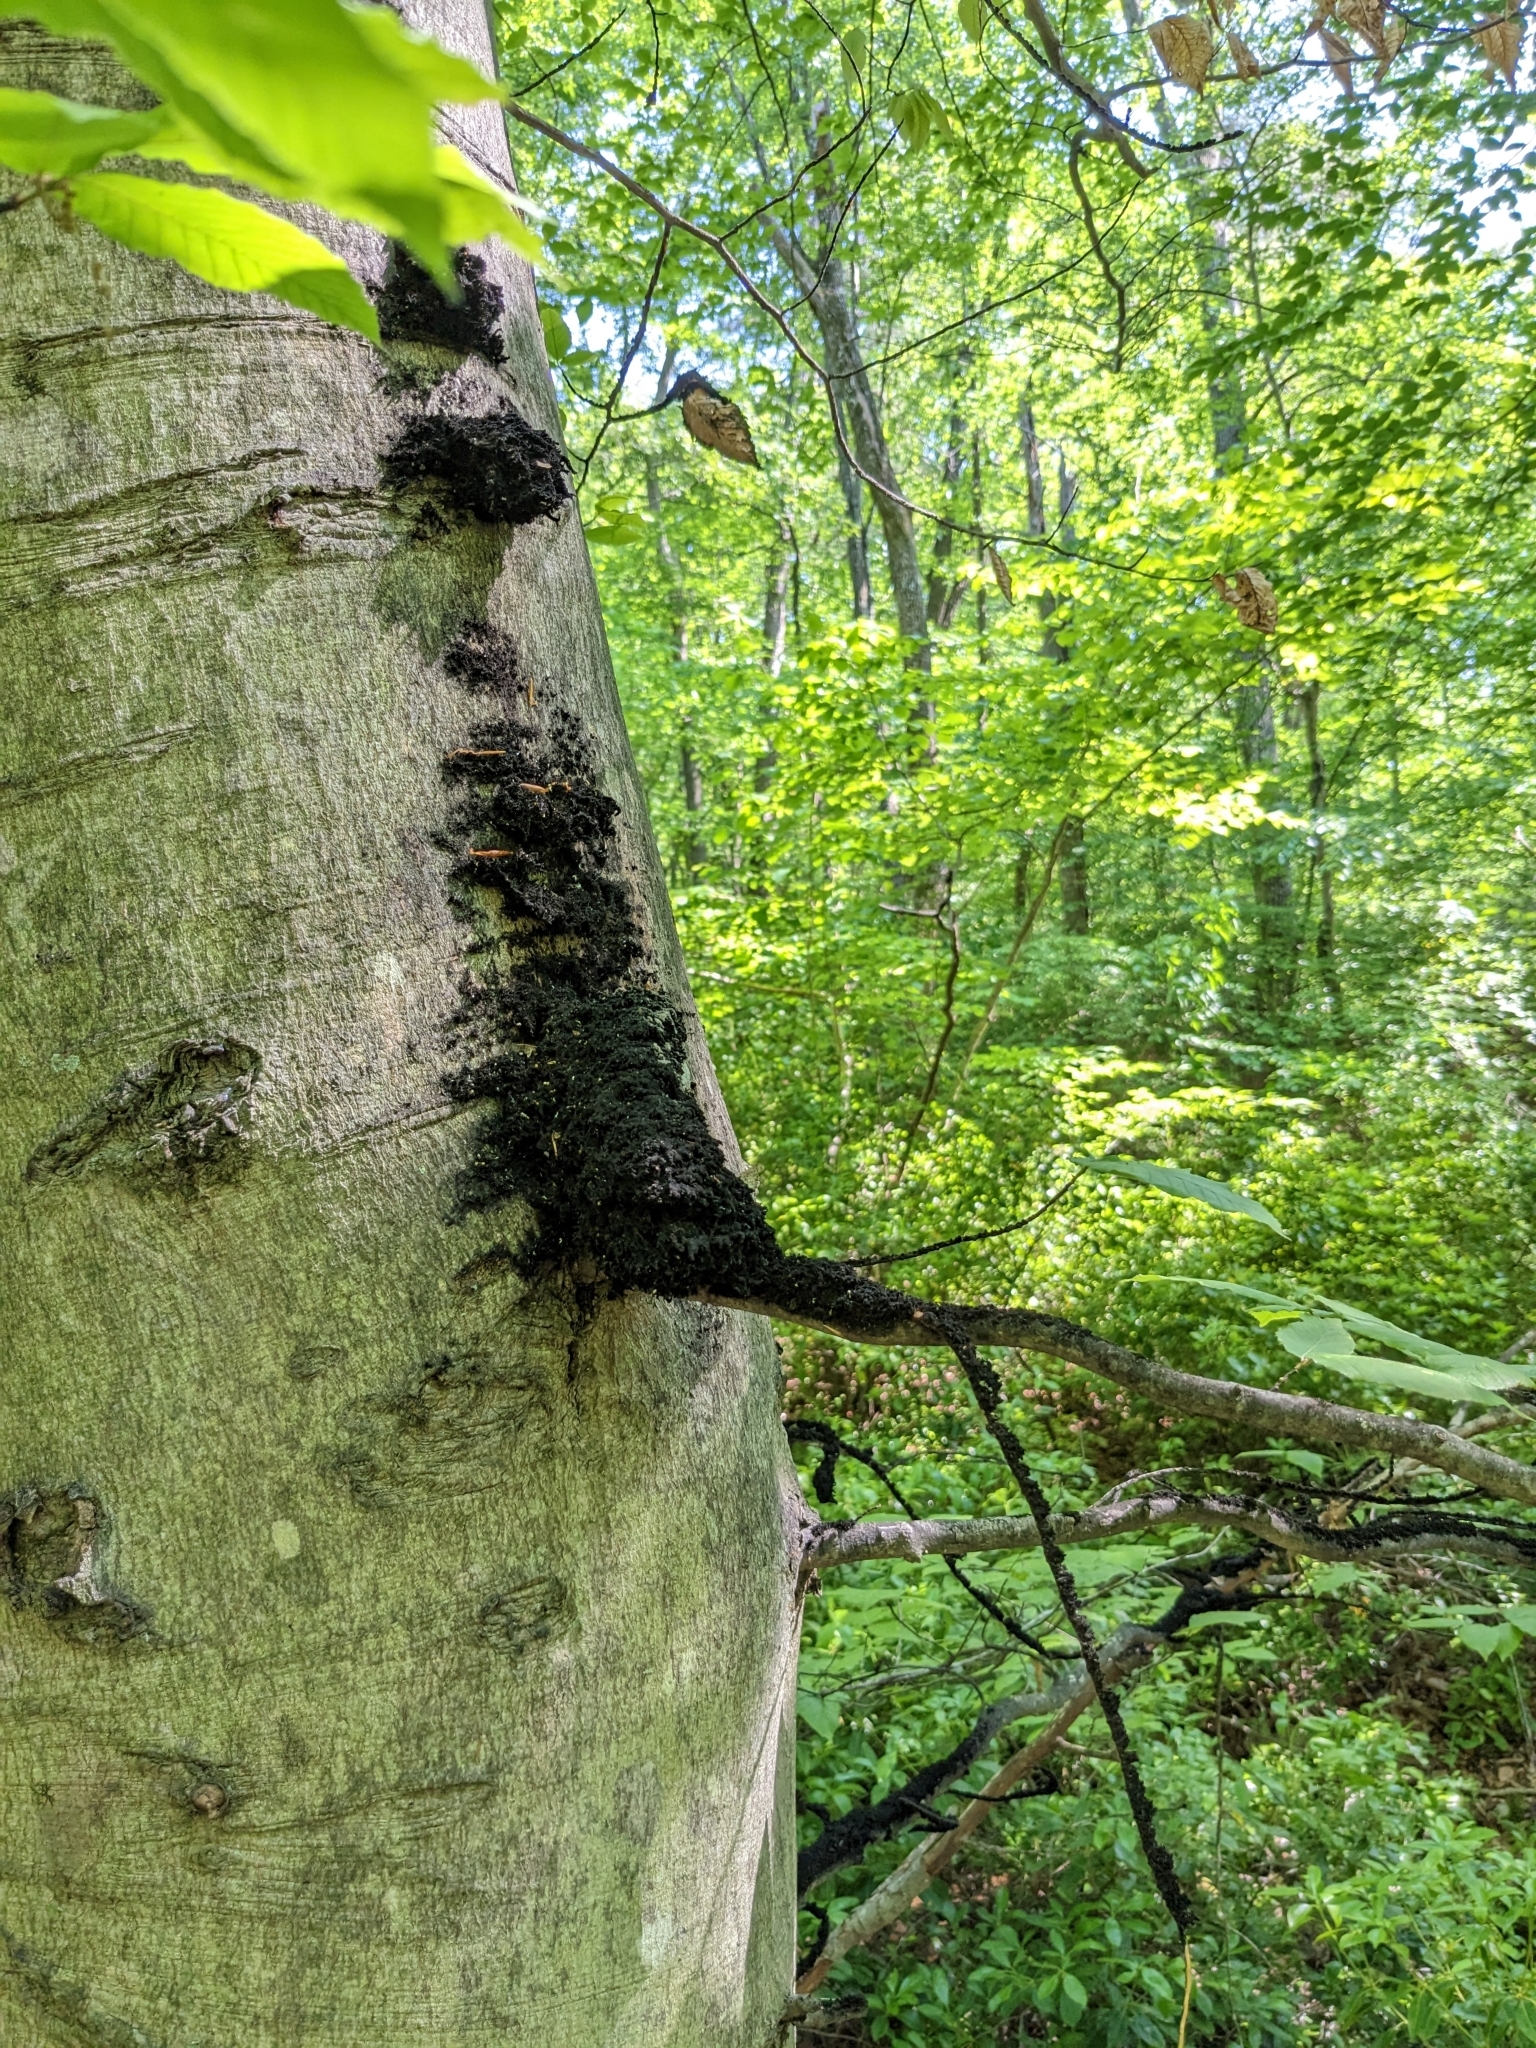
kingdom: Fungi
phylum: Ascomycota
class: Dothideomycetes
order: Capnodiales
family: Capnodiaceae
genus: Scorias
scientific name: Scorias spongiosa
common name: Black sooty mold
